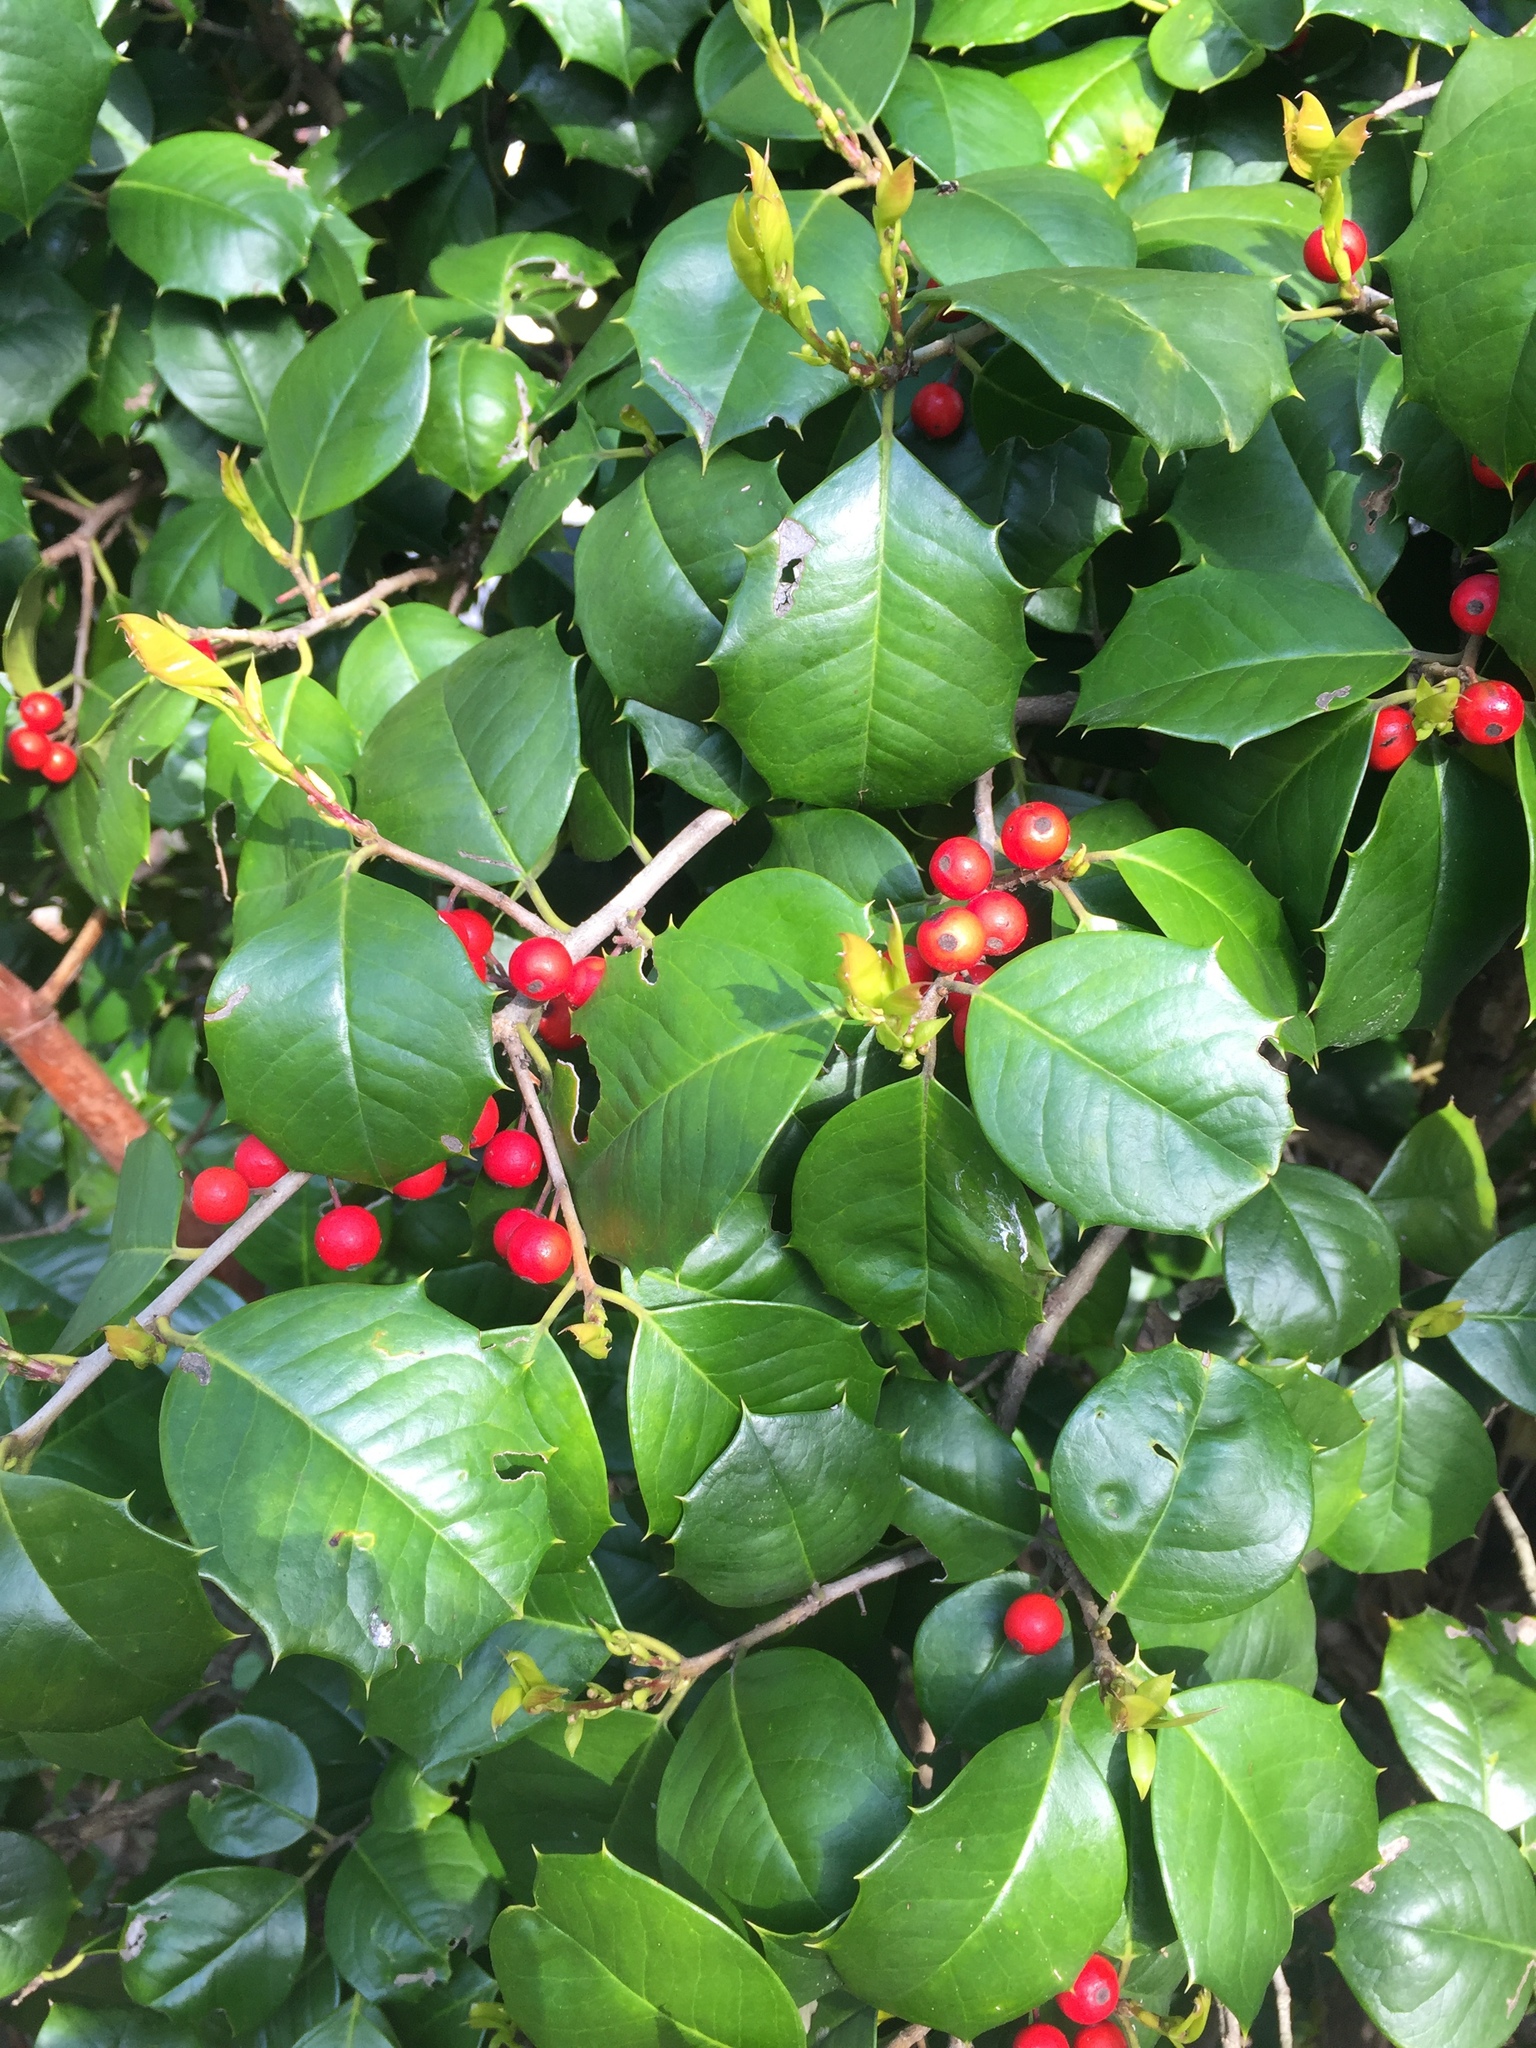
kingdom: Plantae
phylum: Tracheophyta
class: Magnoliopsida
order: Aquifoliales
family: Aquifoliaceae
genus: Ilex
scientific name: Ilex opaca
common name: American holly
